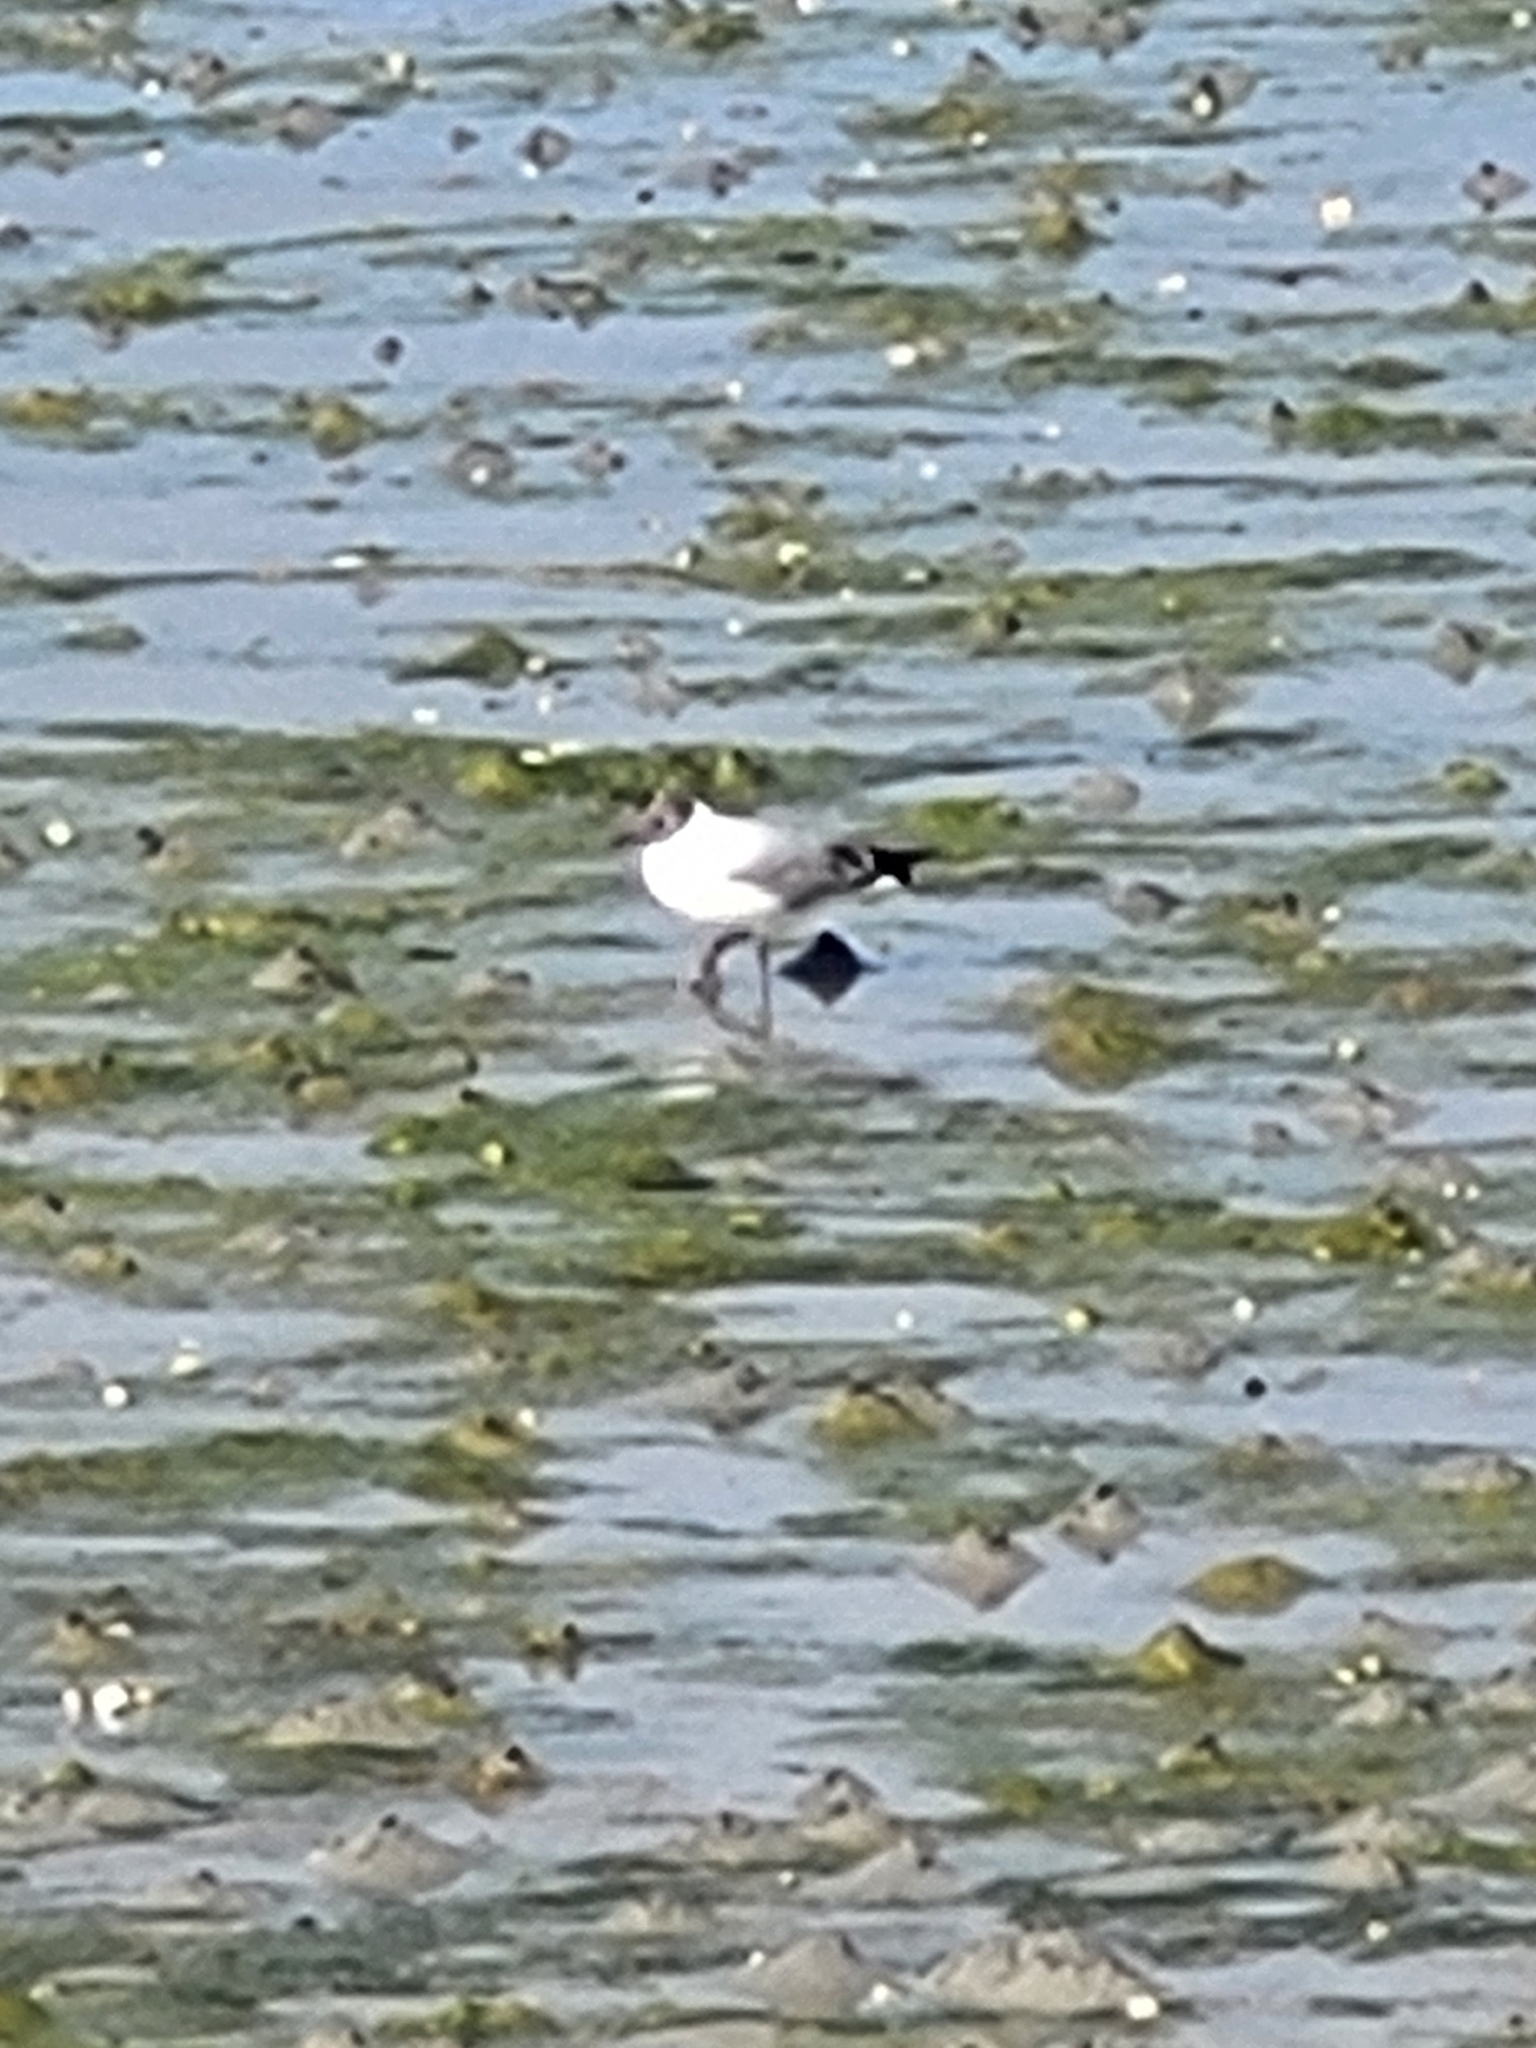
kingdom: Animalia
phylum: Chordata
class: Aves
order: Charadriiformes
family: Laridae
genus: Chroicocephalus
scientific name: Chroicocephalus ridibundus
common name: Black-headed gull
